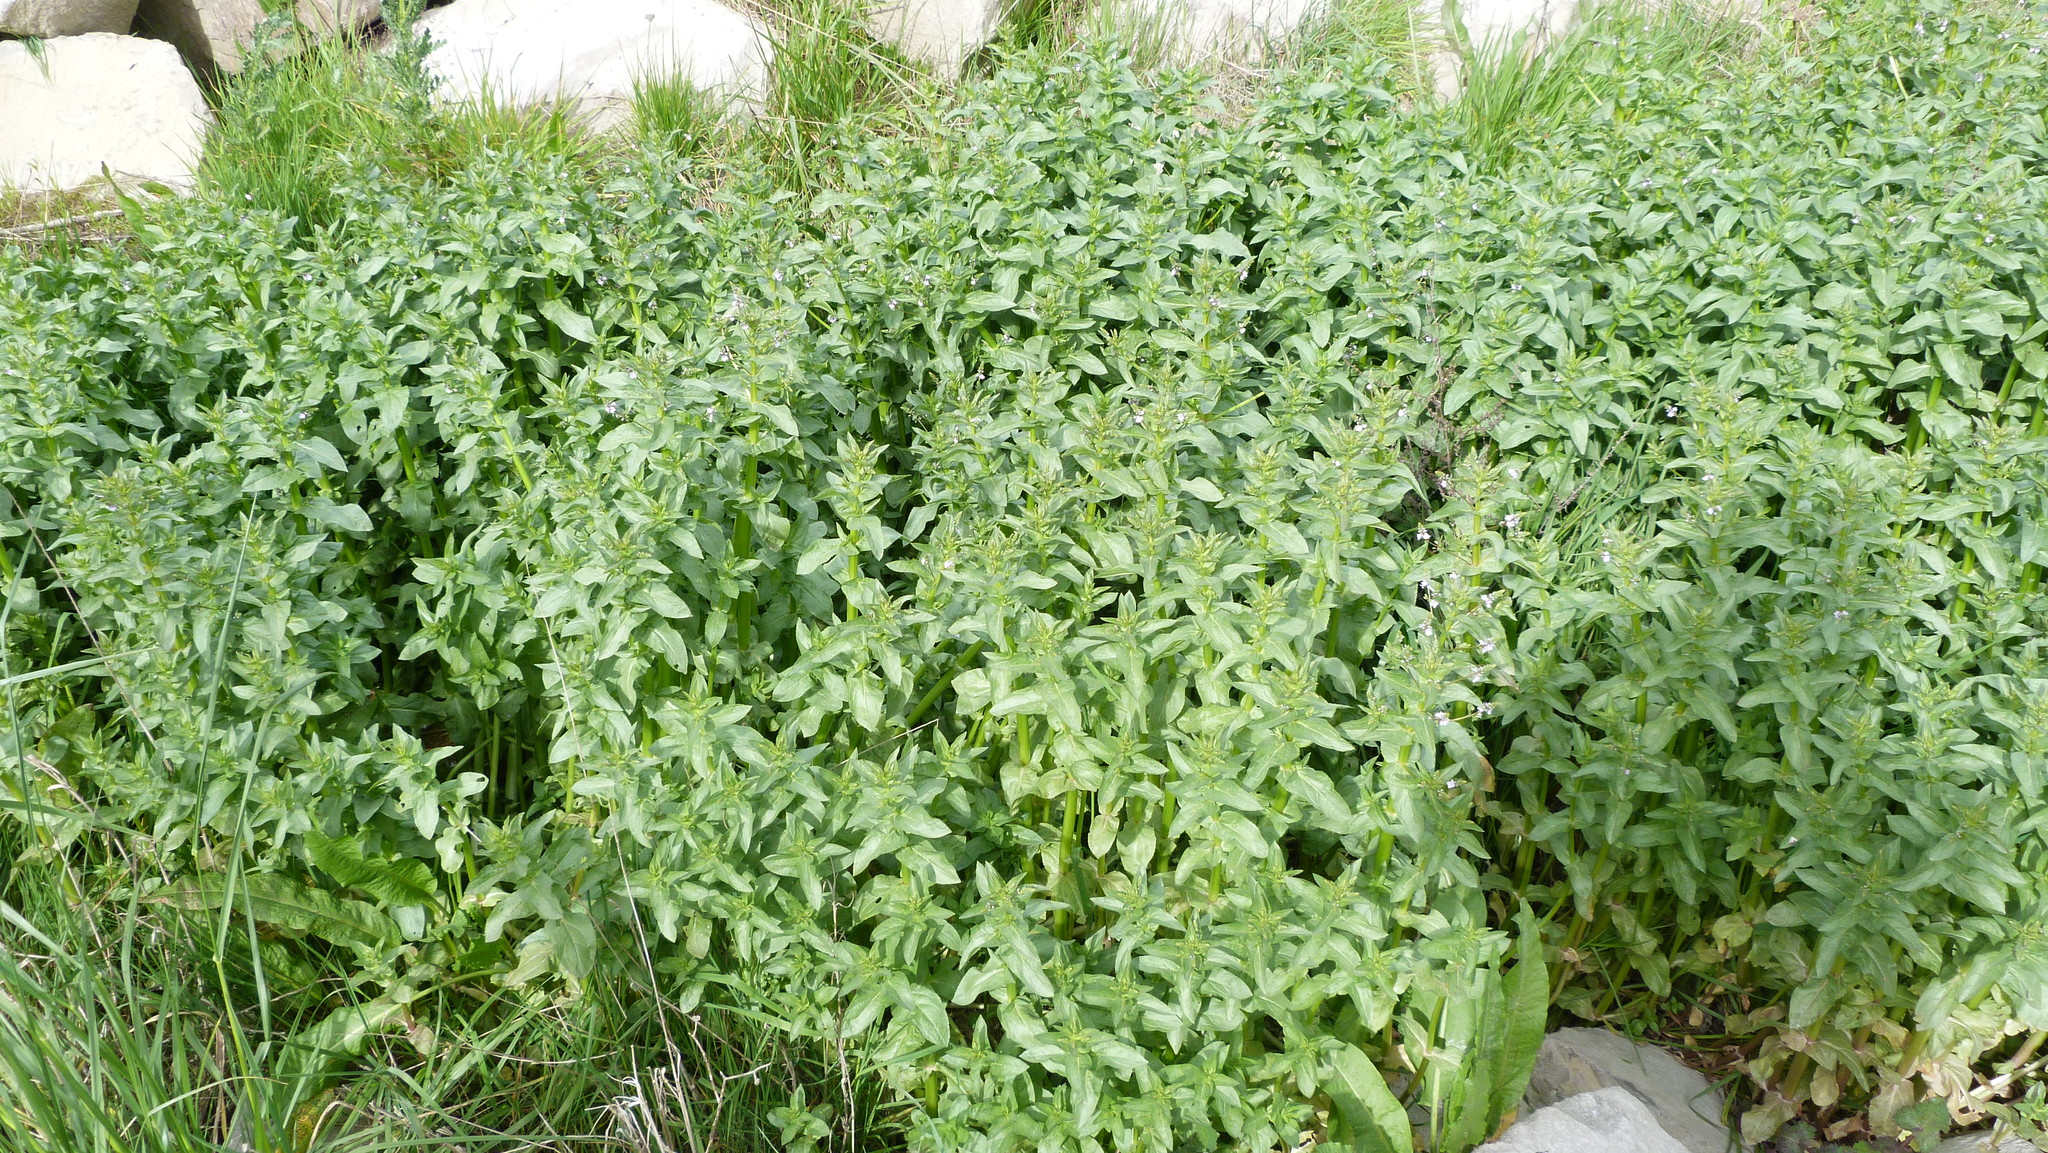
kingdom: Plantae
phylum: Tracheophyta
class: Magnoliopsida
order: Lamiales
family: Plantaginaceae
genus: Veronica
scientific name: Veronica anagallis-aquatica
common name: Water speedwell
